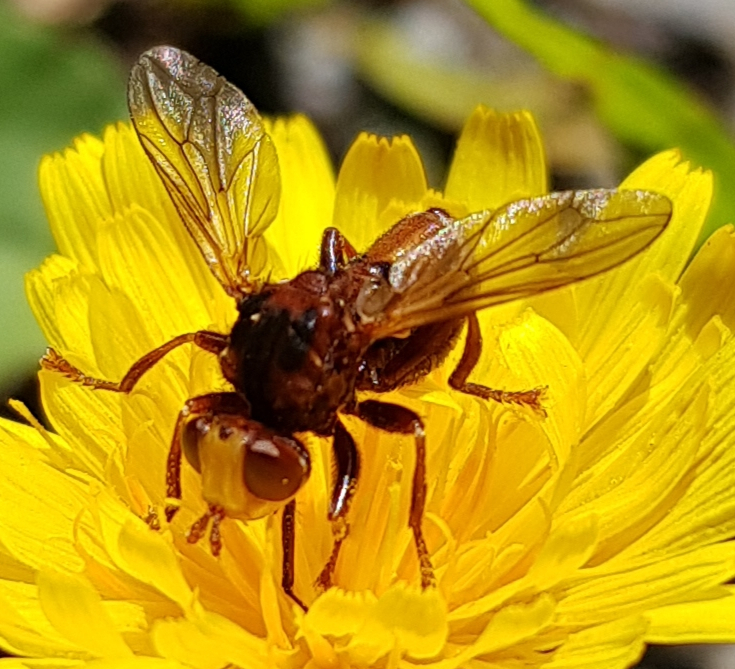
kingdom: Animalia
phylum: Arthropoda
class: Insecta
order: Diptera
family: Conopidae
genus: Sicus
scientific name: Sicus ferrugineus
